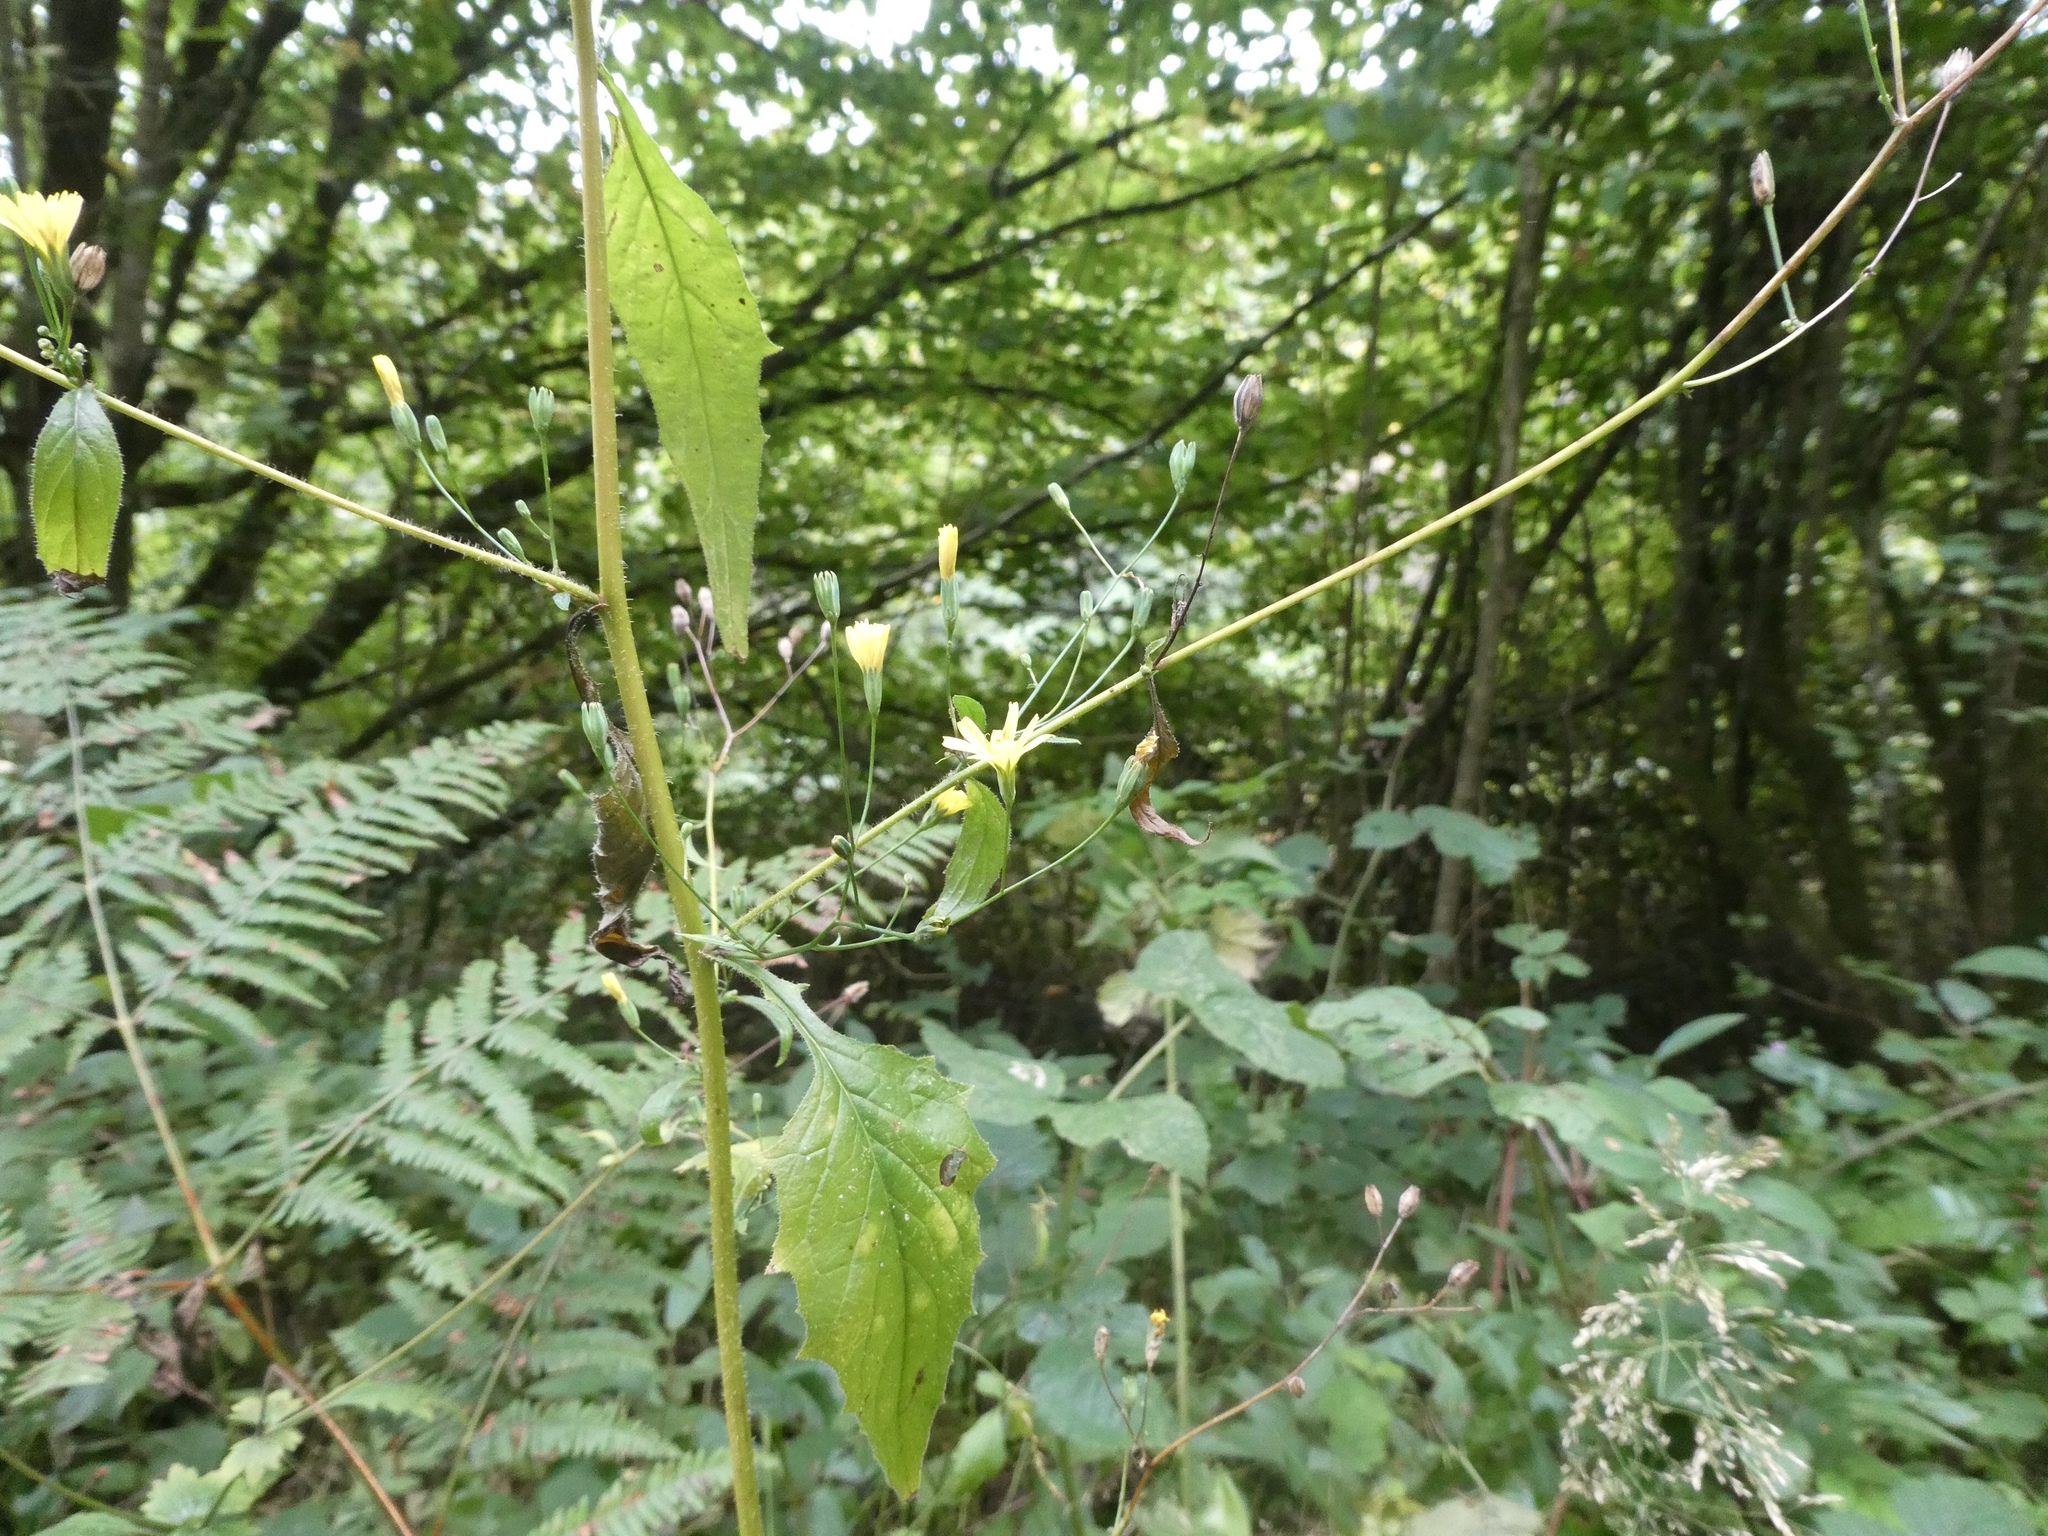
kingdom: Plantae
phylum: Tracheophyta
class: Magnoliopsida
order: Asterales
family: Asteraceae
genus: Lapsana
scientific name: Lapsana communis
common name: Nipplewort
